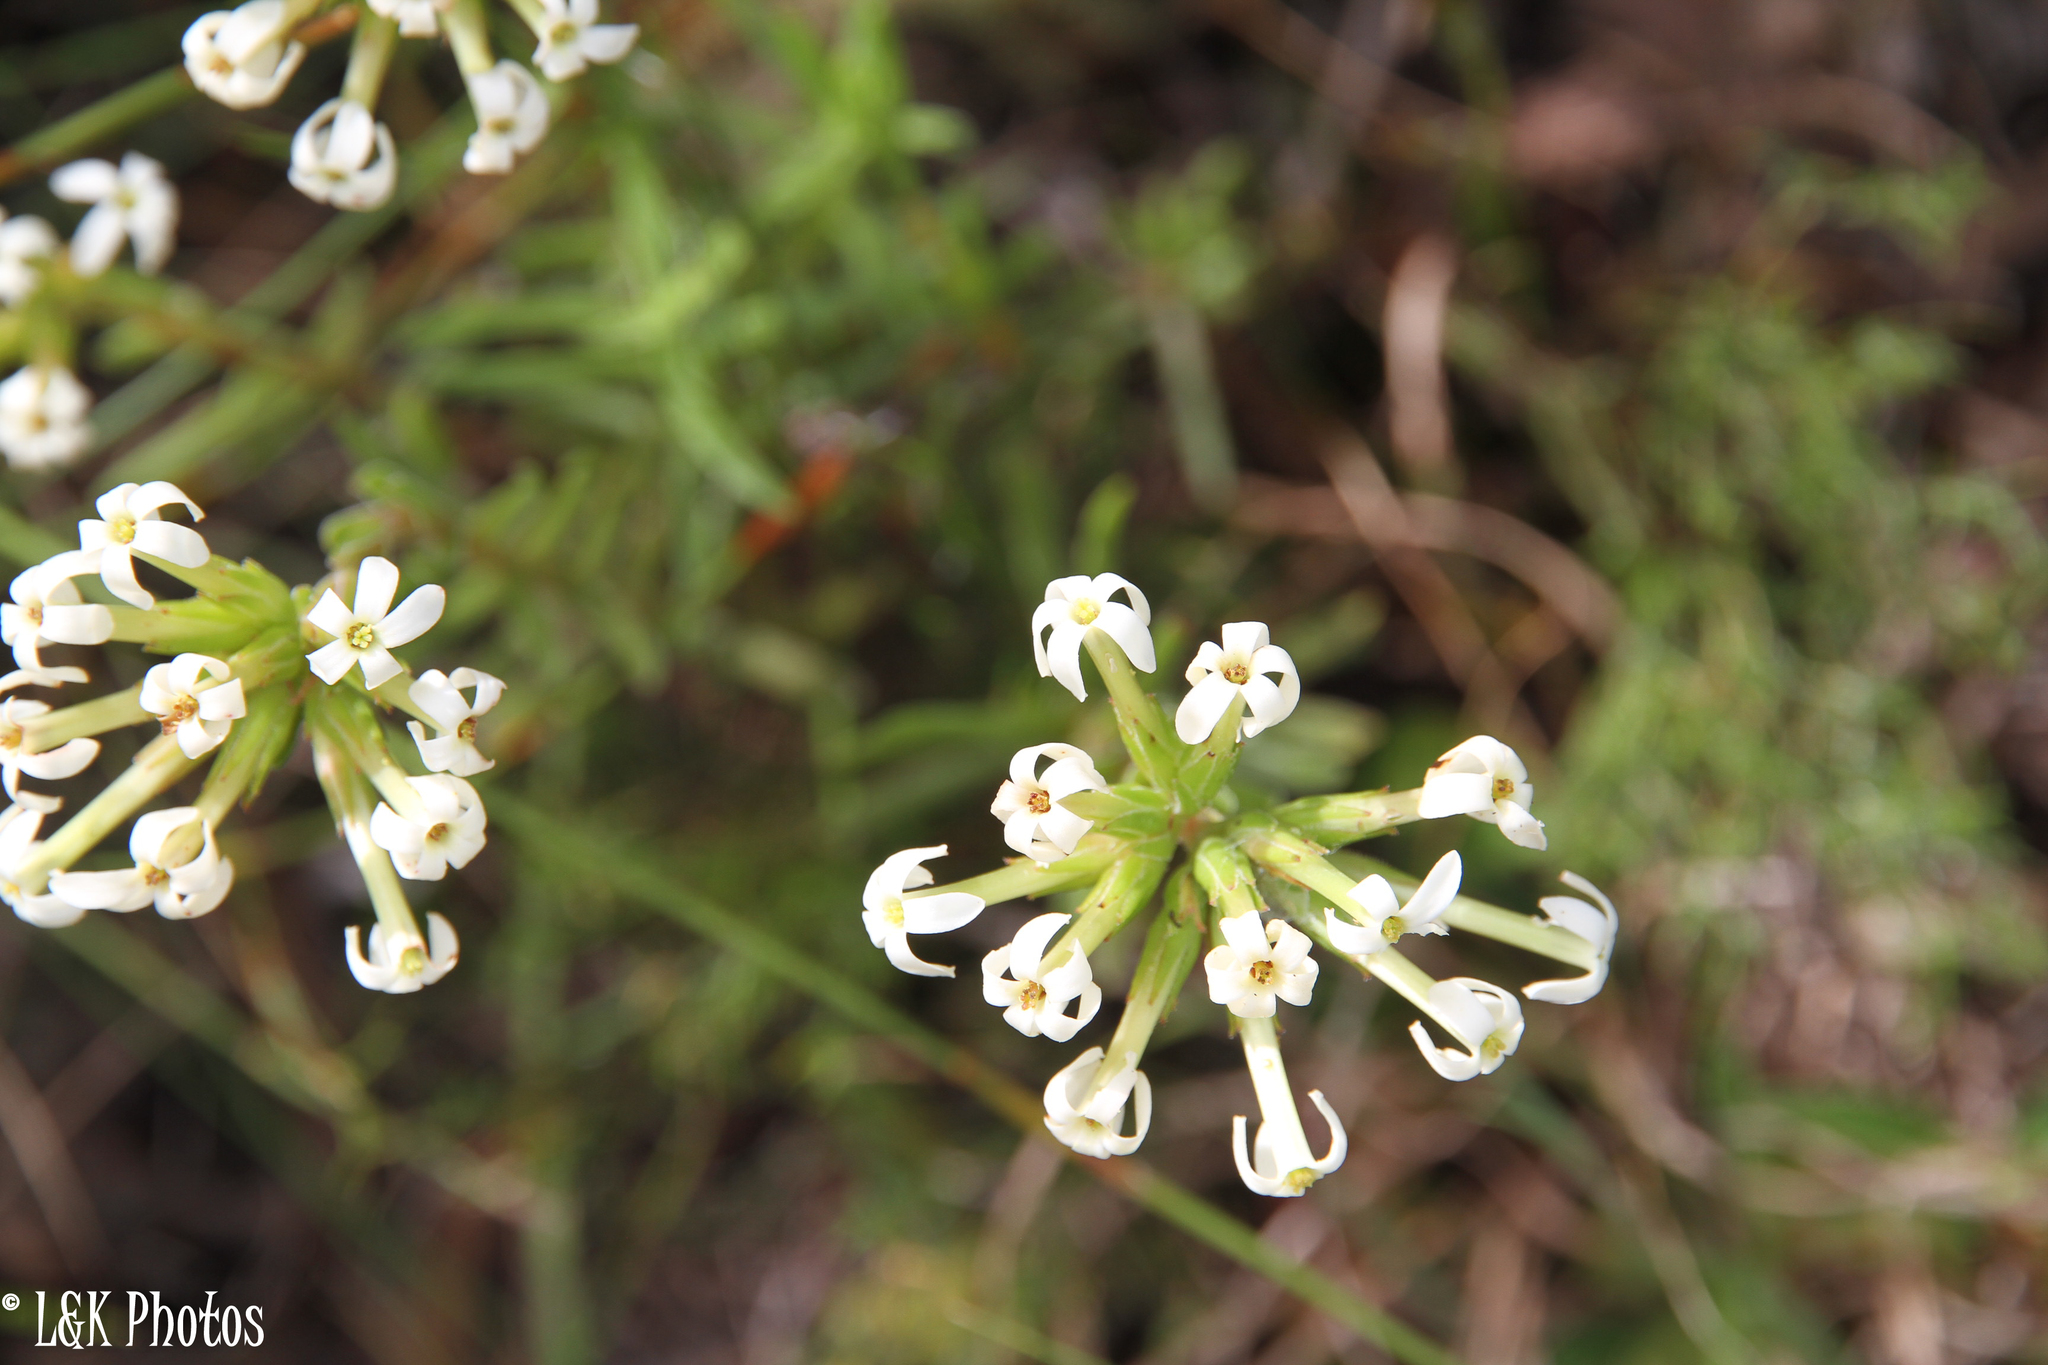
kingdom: Plantae
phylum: Tracheophyta
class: Magnoliopsida
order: Saxifragales
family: Crassulaceae
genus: Crassula
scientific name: Crassula fascicularis
